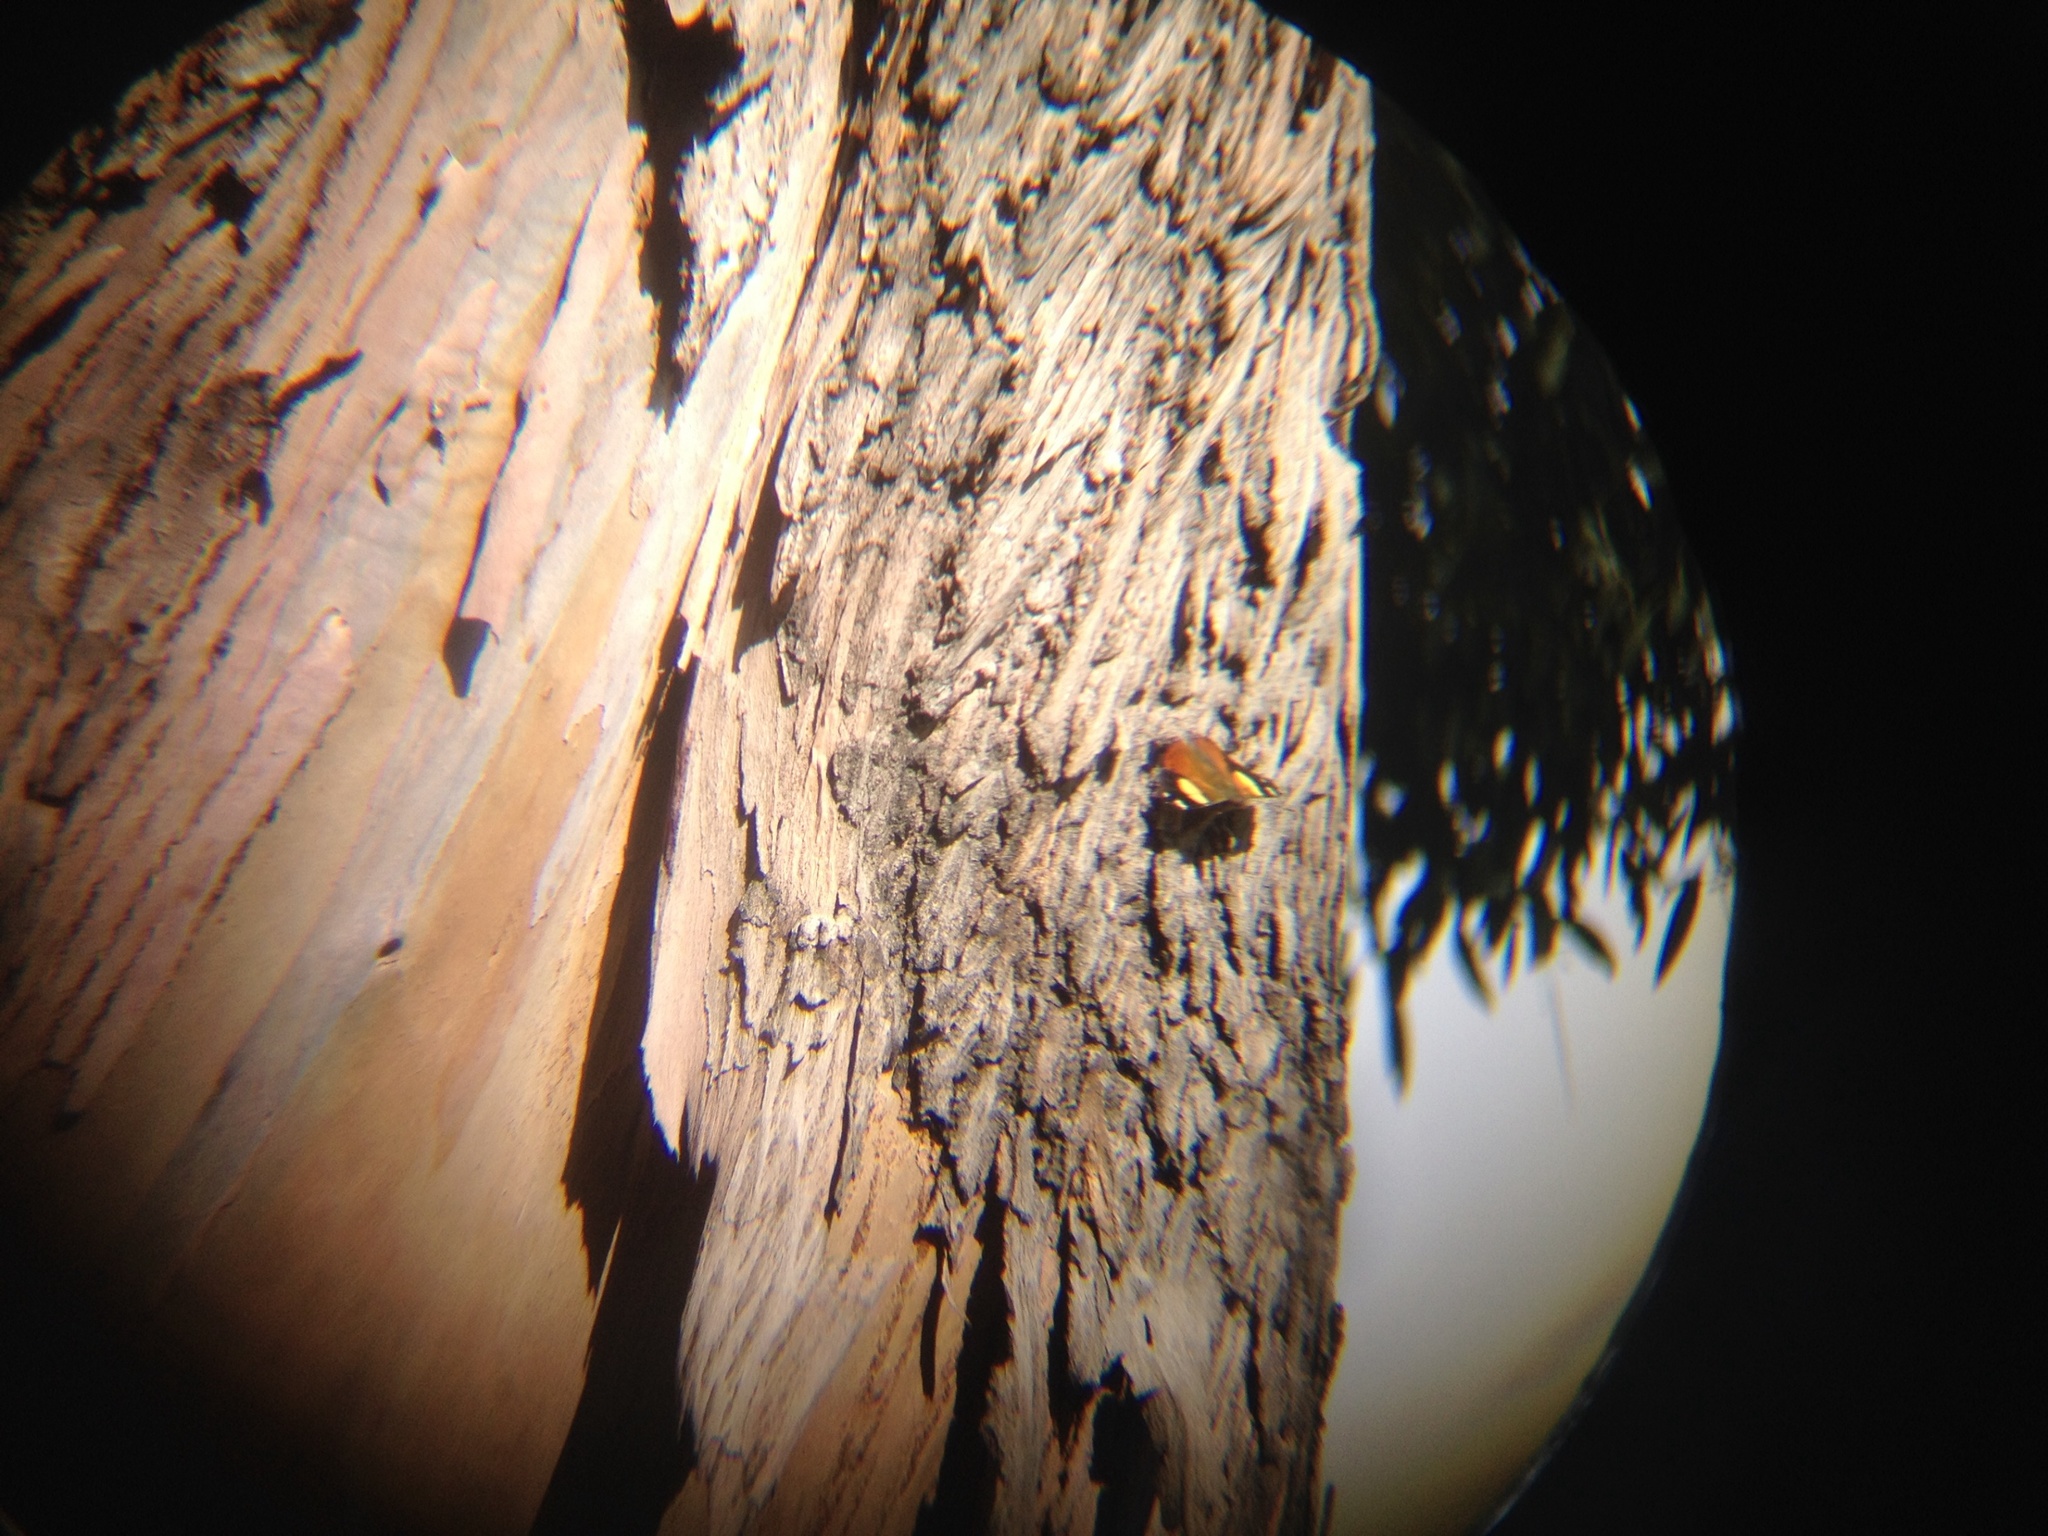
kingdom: Animalia
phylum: Arthropoda
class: Insecta
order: Lepidoptera
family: Nymphalidae
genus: Vanessa
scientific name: Vanessa itea
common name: Yellow admiral
